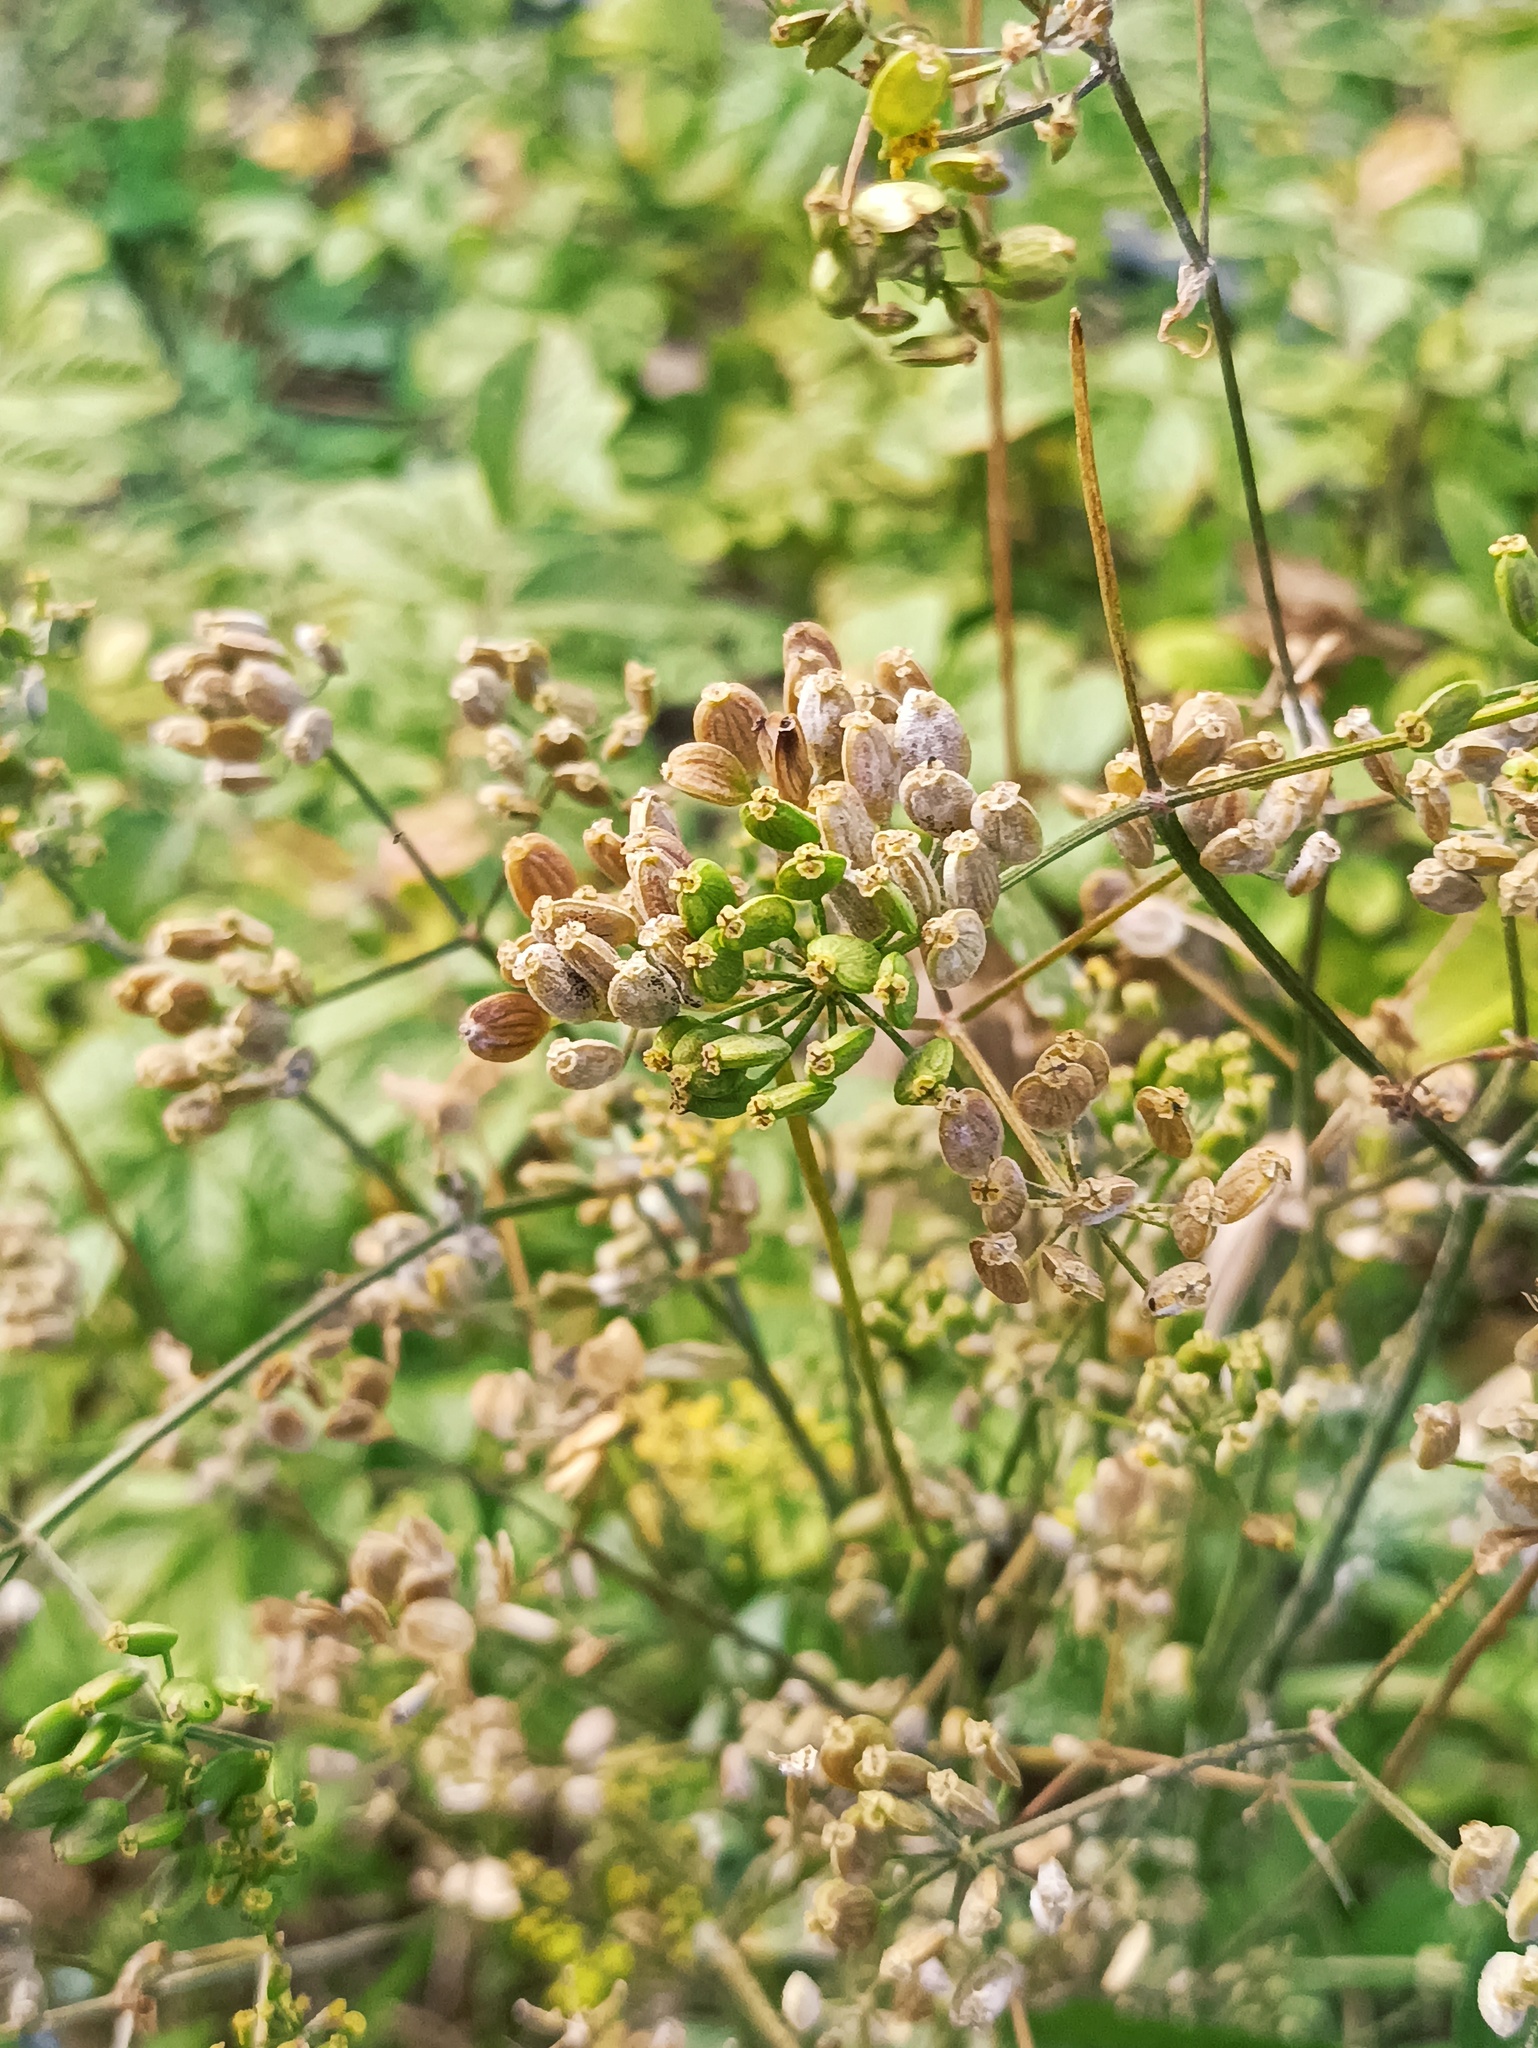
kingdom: Plantae
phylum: Tracheophyta
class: Magnoliopsida
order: Apiales
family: Apiaceae
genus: Pastinaca
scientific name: Pastinaca sativa
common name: Wild parsnip
